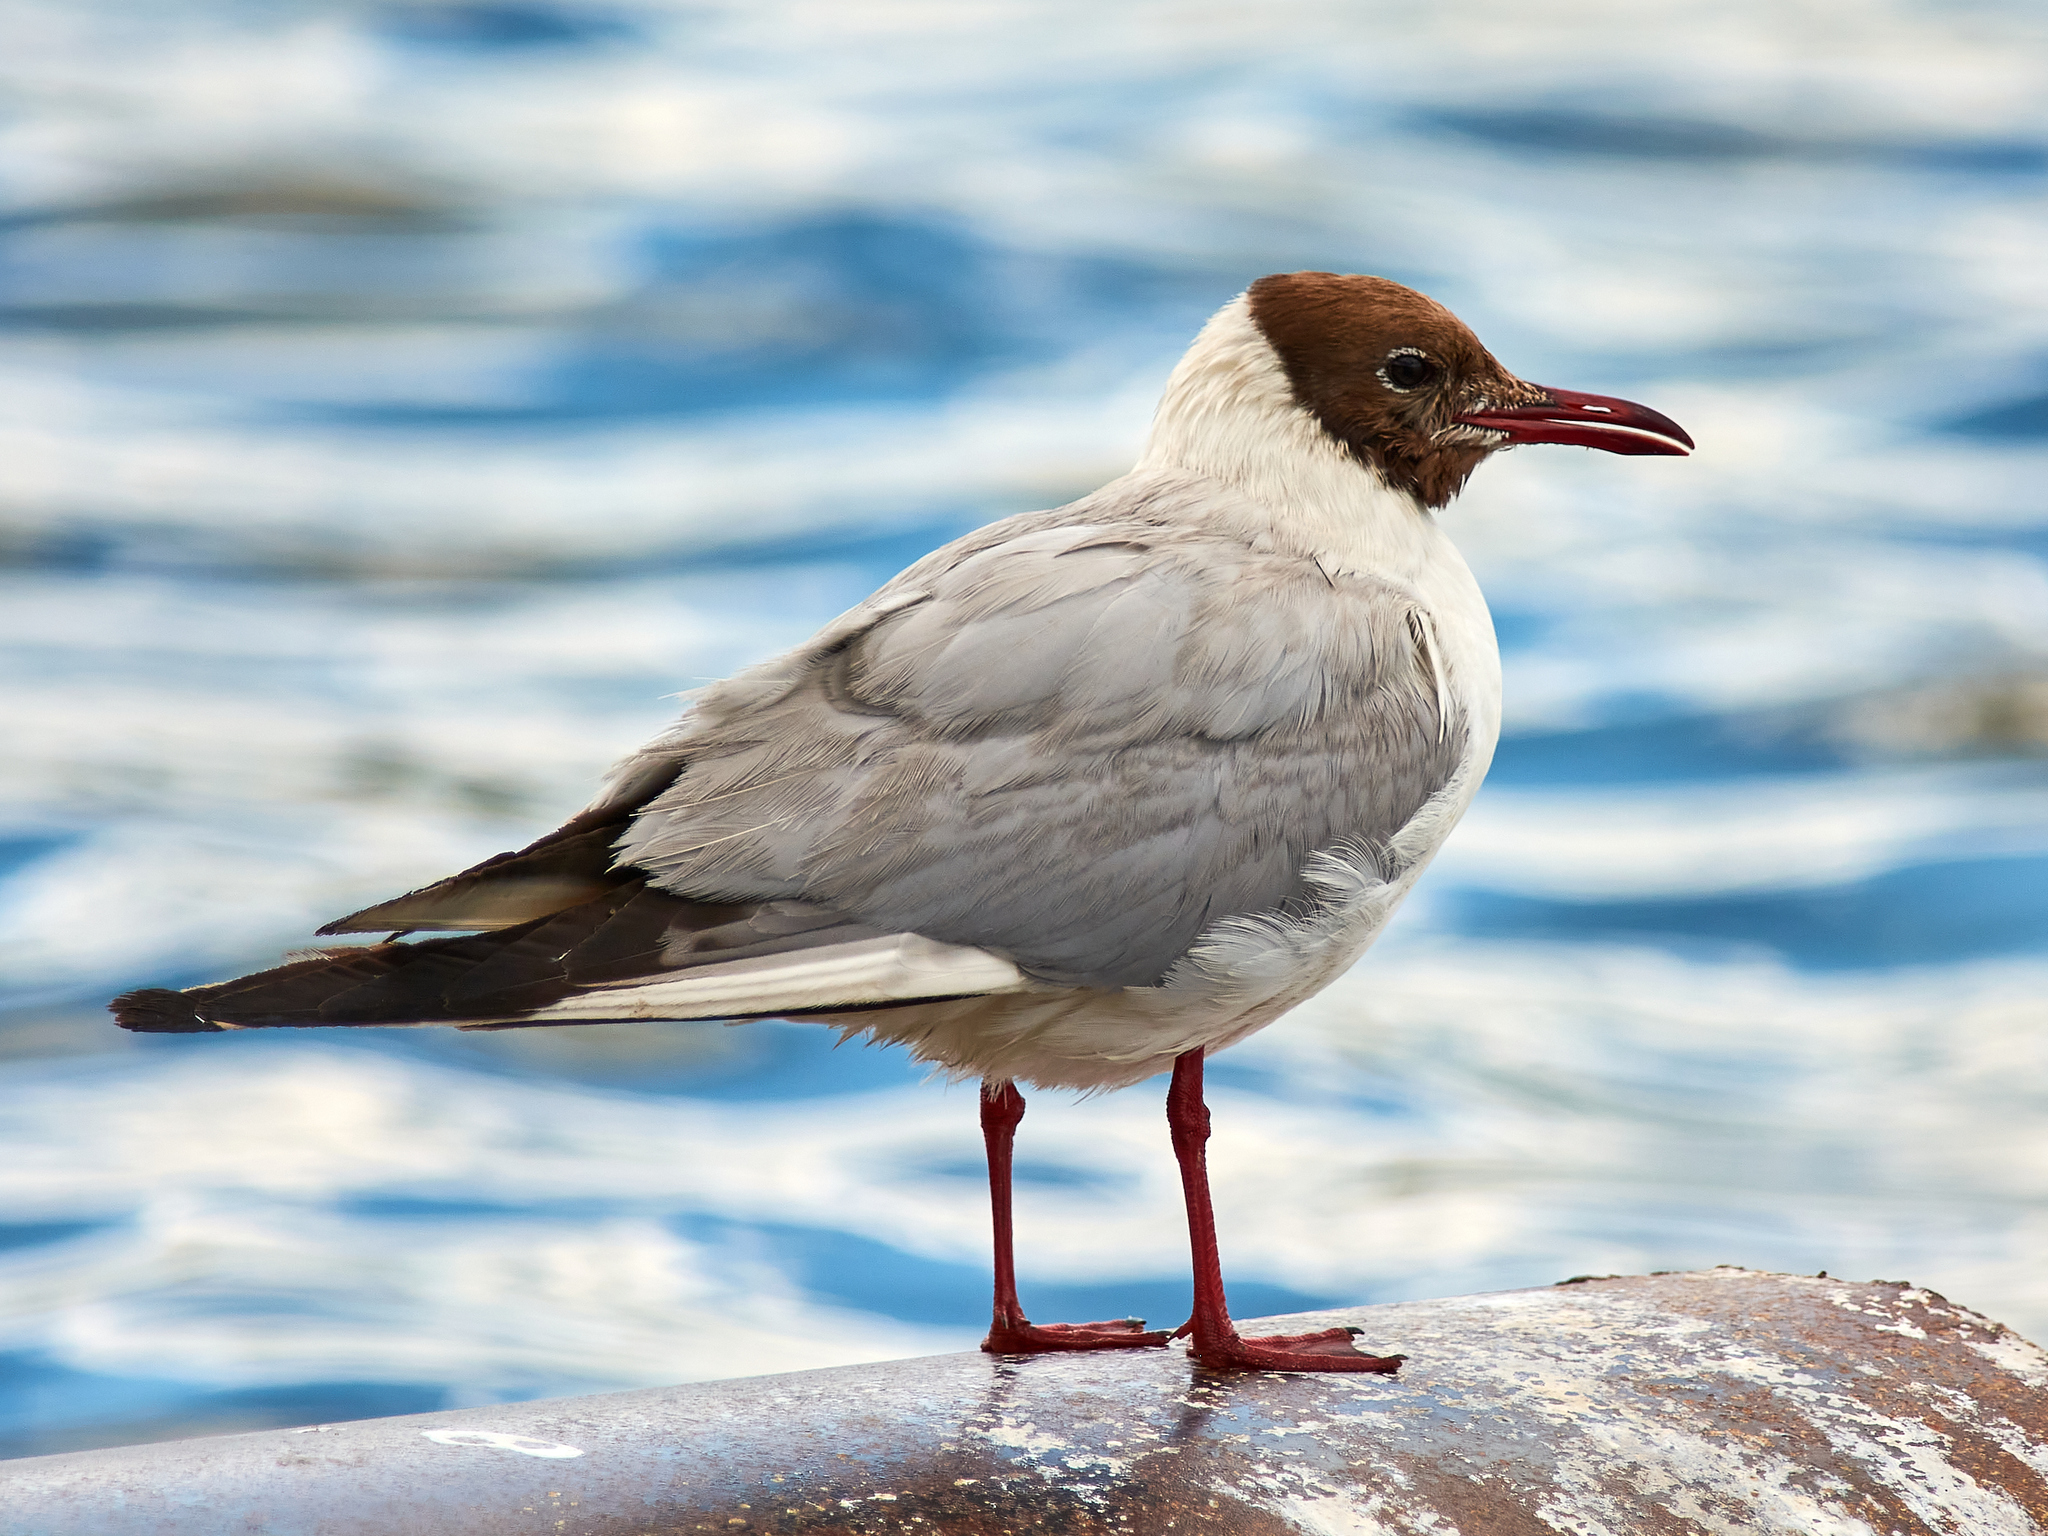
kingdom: Animalia
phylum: Chordata
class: Aves
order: Charadriiformes
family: Laridae
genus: Chroicocephalus
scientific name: Chroicocephalus ridibundus
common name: Black-headed gull
